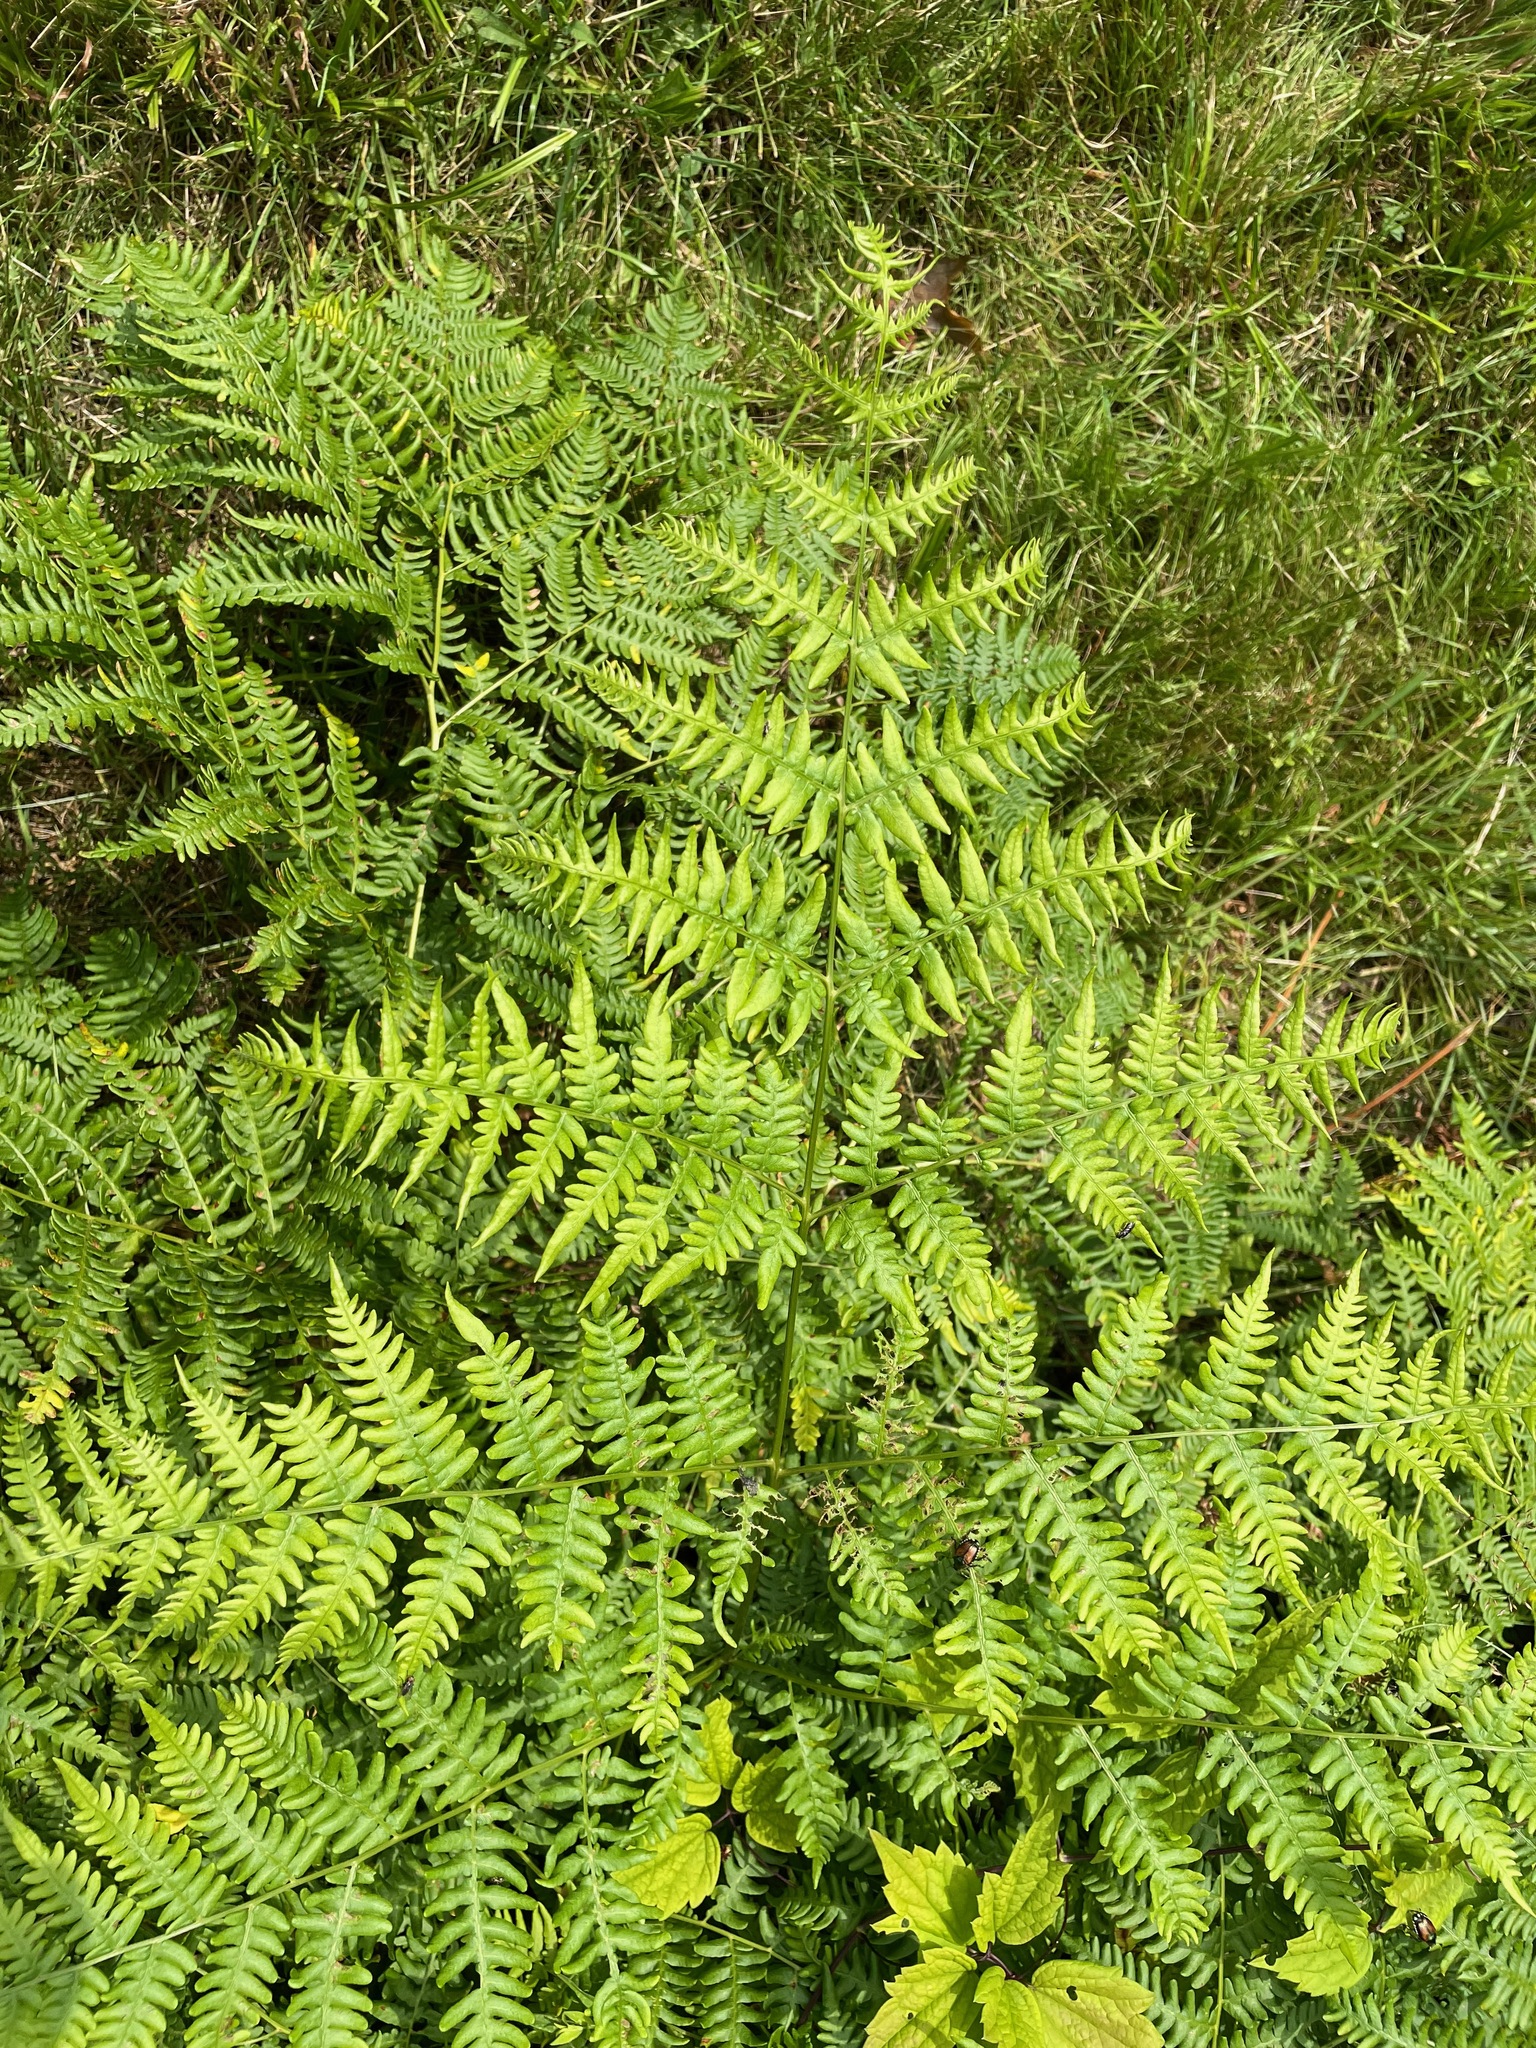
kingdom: Plantae
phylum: Tracheophyta
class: Polypodiopsida
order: Polypodiales
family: Dennstaedtiaceae
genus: Pteridium
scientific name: Pteridium aquilinum
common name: Bracken
